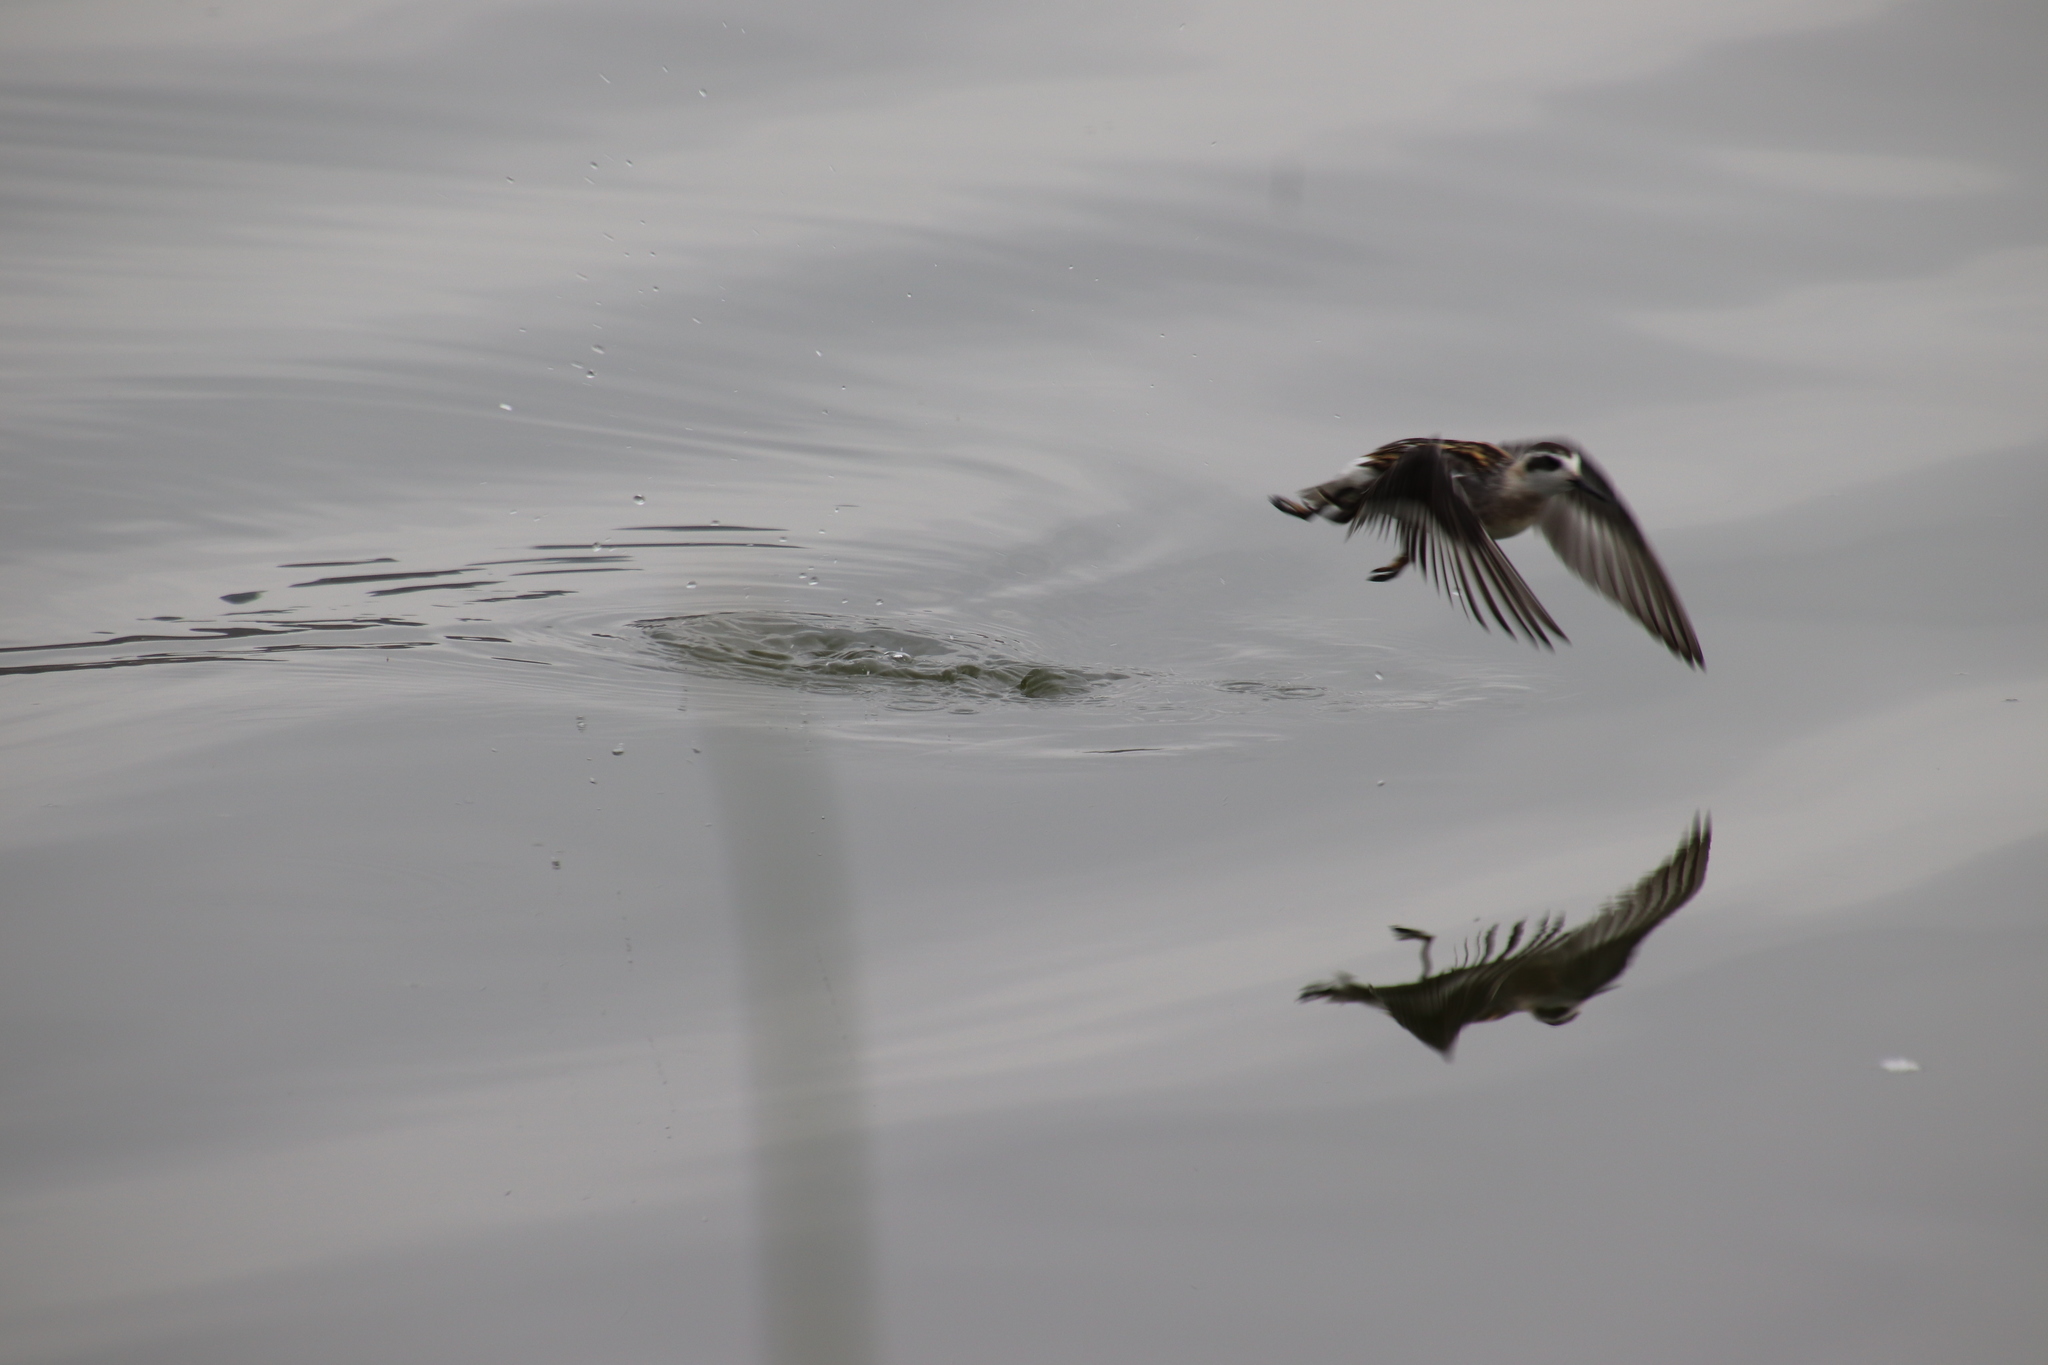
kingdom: Animalia
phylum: Chordata
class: Aves
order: Charadriiformes
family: Scolopacidae
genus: Phalaropus
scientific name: Phalaropus lobatus
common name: Red-necked phalarope
